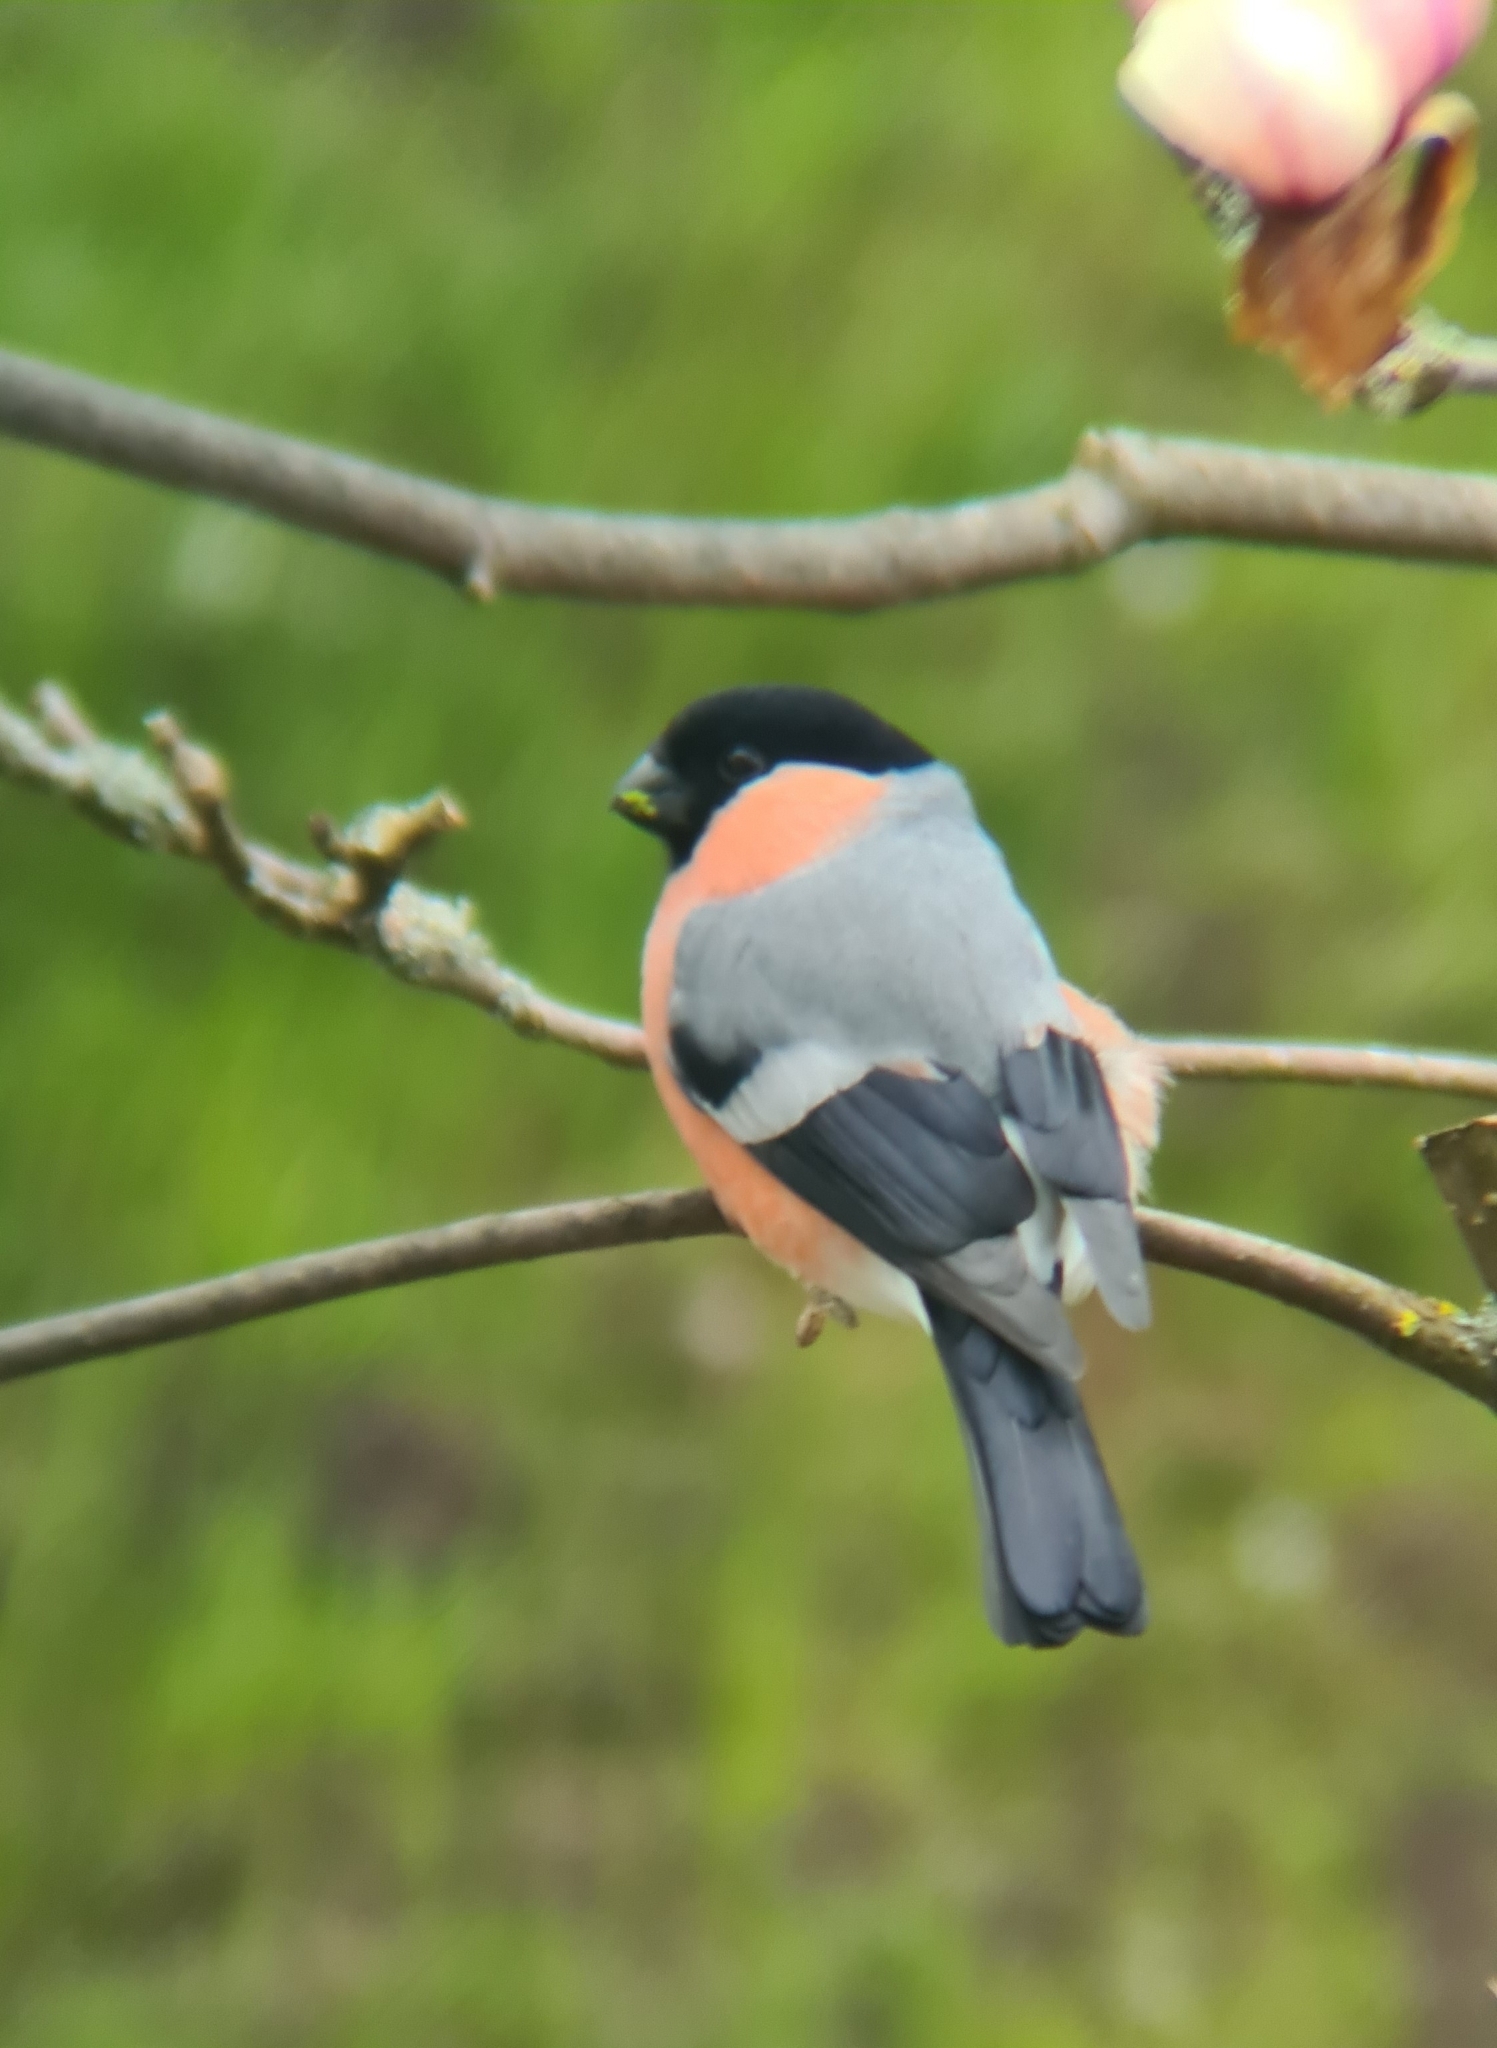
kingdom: Animalia
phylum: Chordata
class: Aves
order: Passeriformes
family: Fringillidae
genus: Pyrrhula
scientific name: Pyrrhula pyrrhula
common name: Eurasian bullfinch
